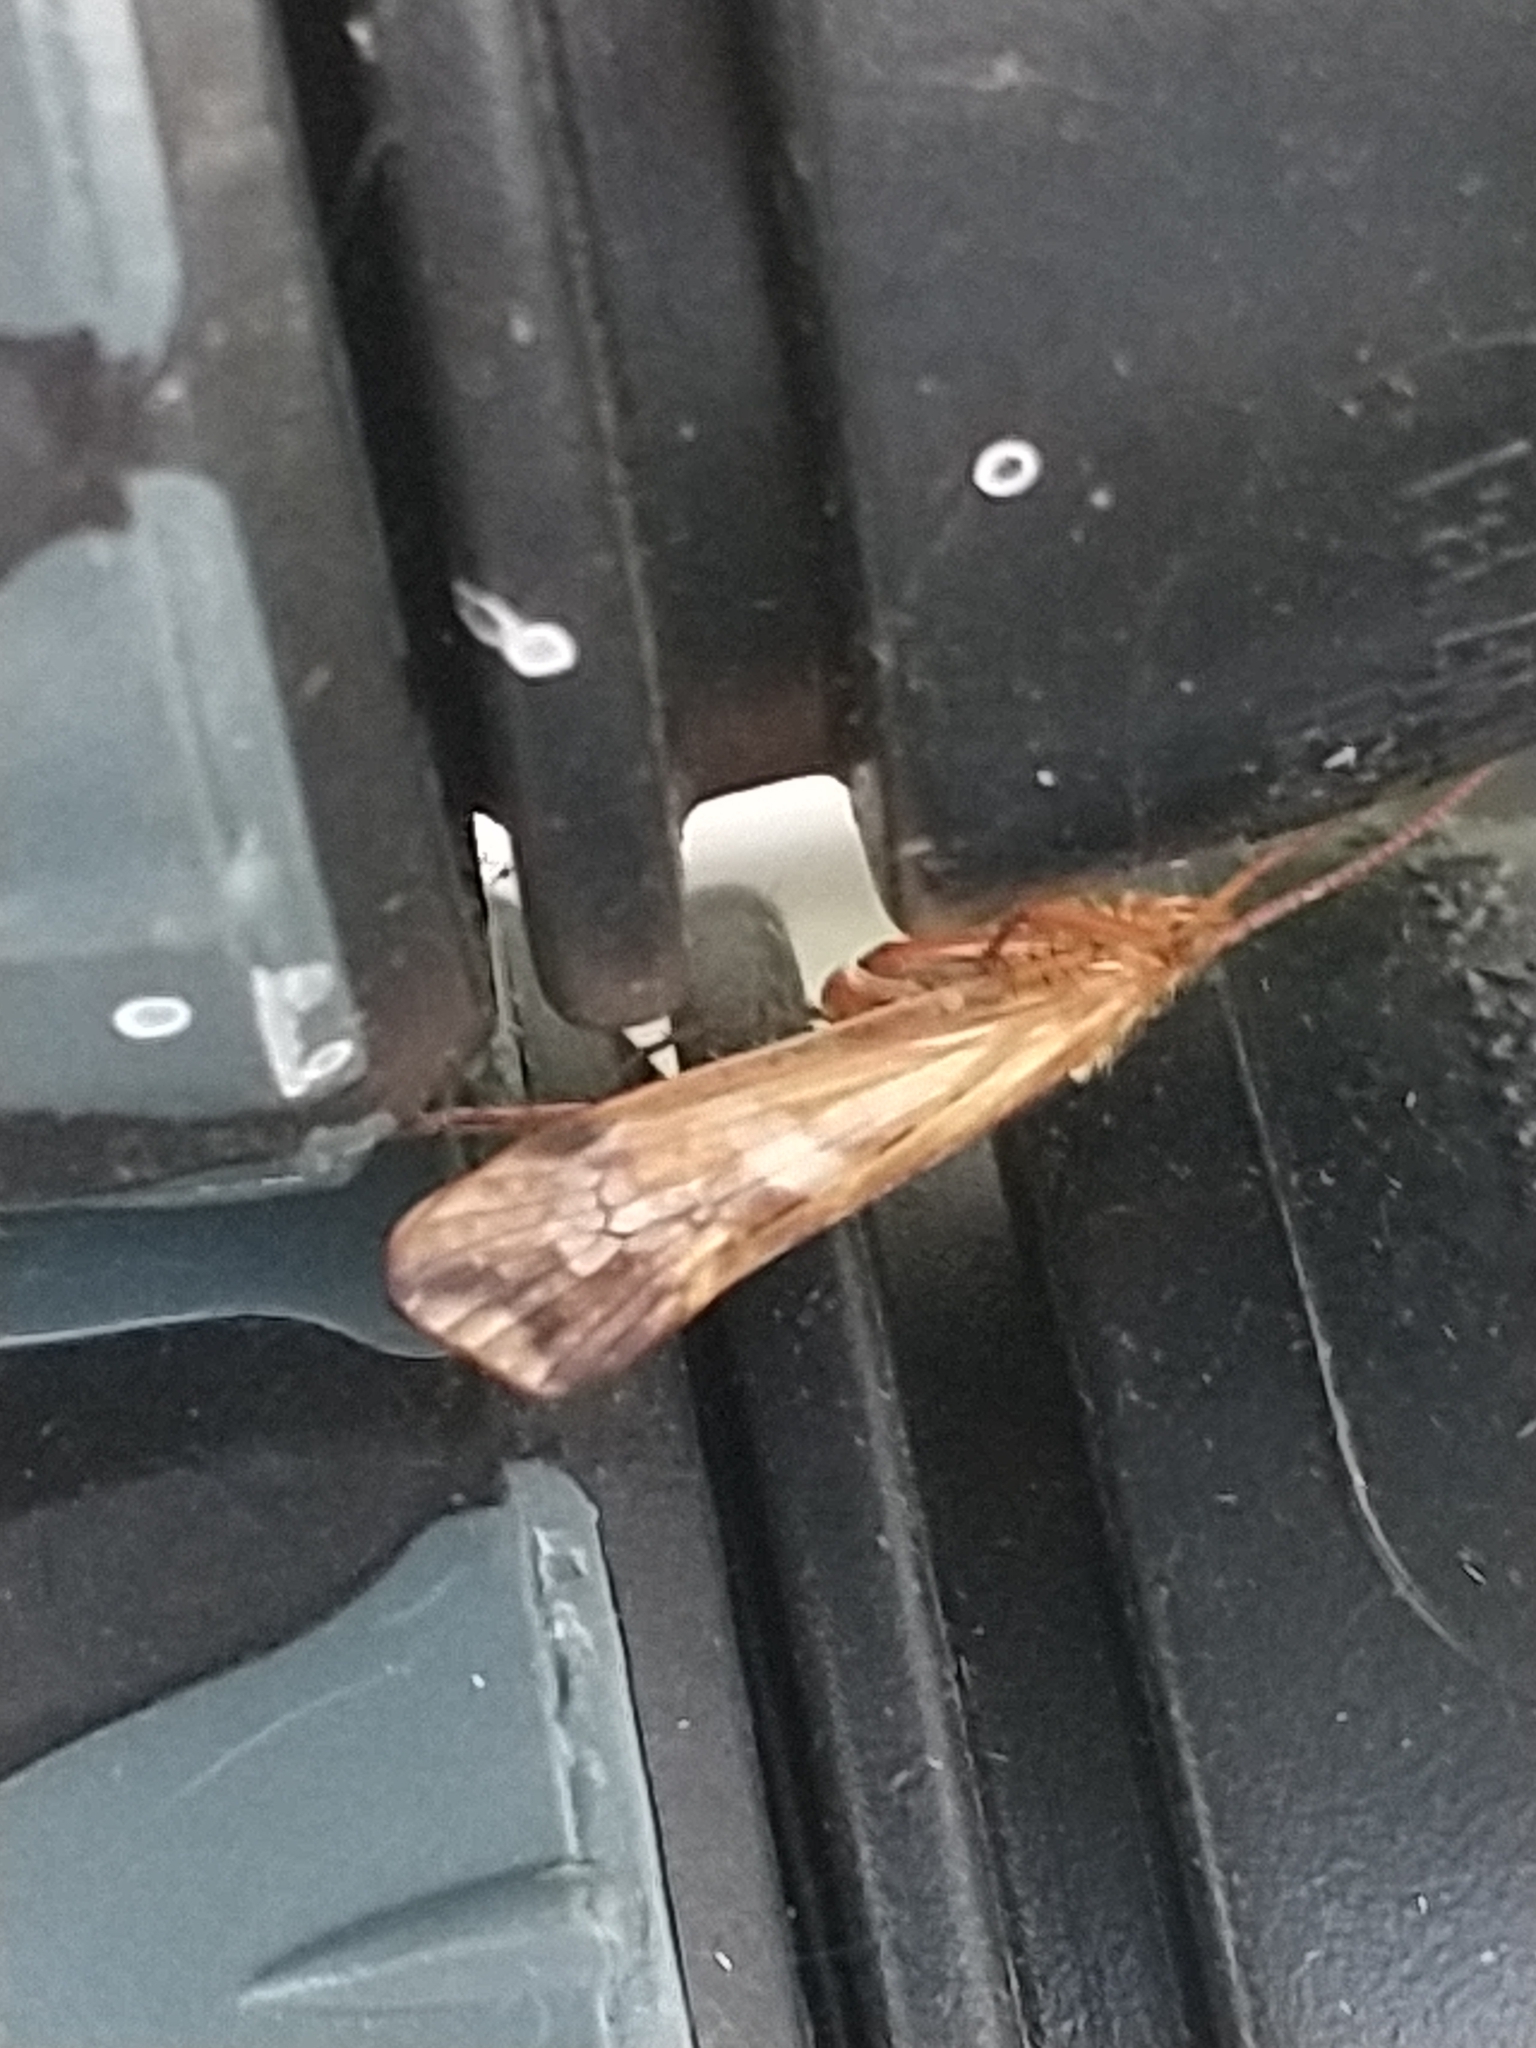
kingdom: Animalia
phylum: Arthropoda
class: Insecta
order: Trichoptera
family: Limnephilidae
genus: Limnephilus
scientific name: Limnephilus lunatus
